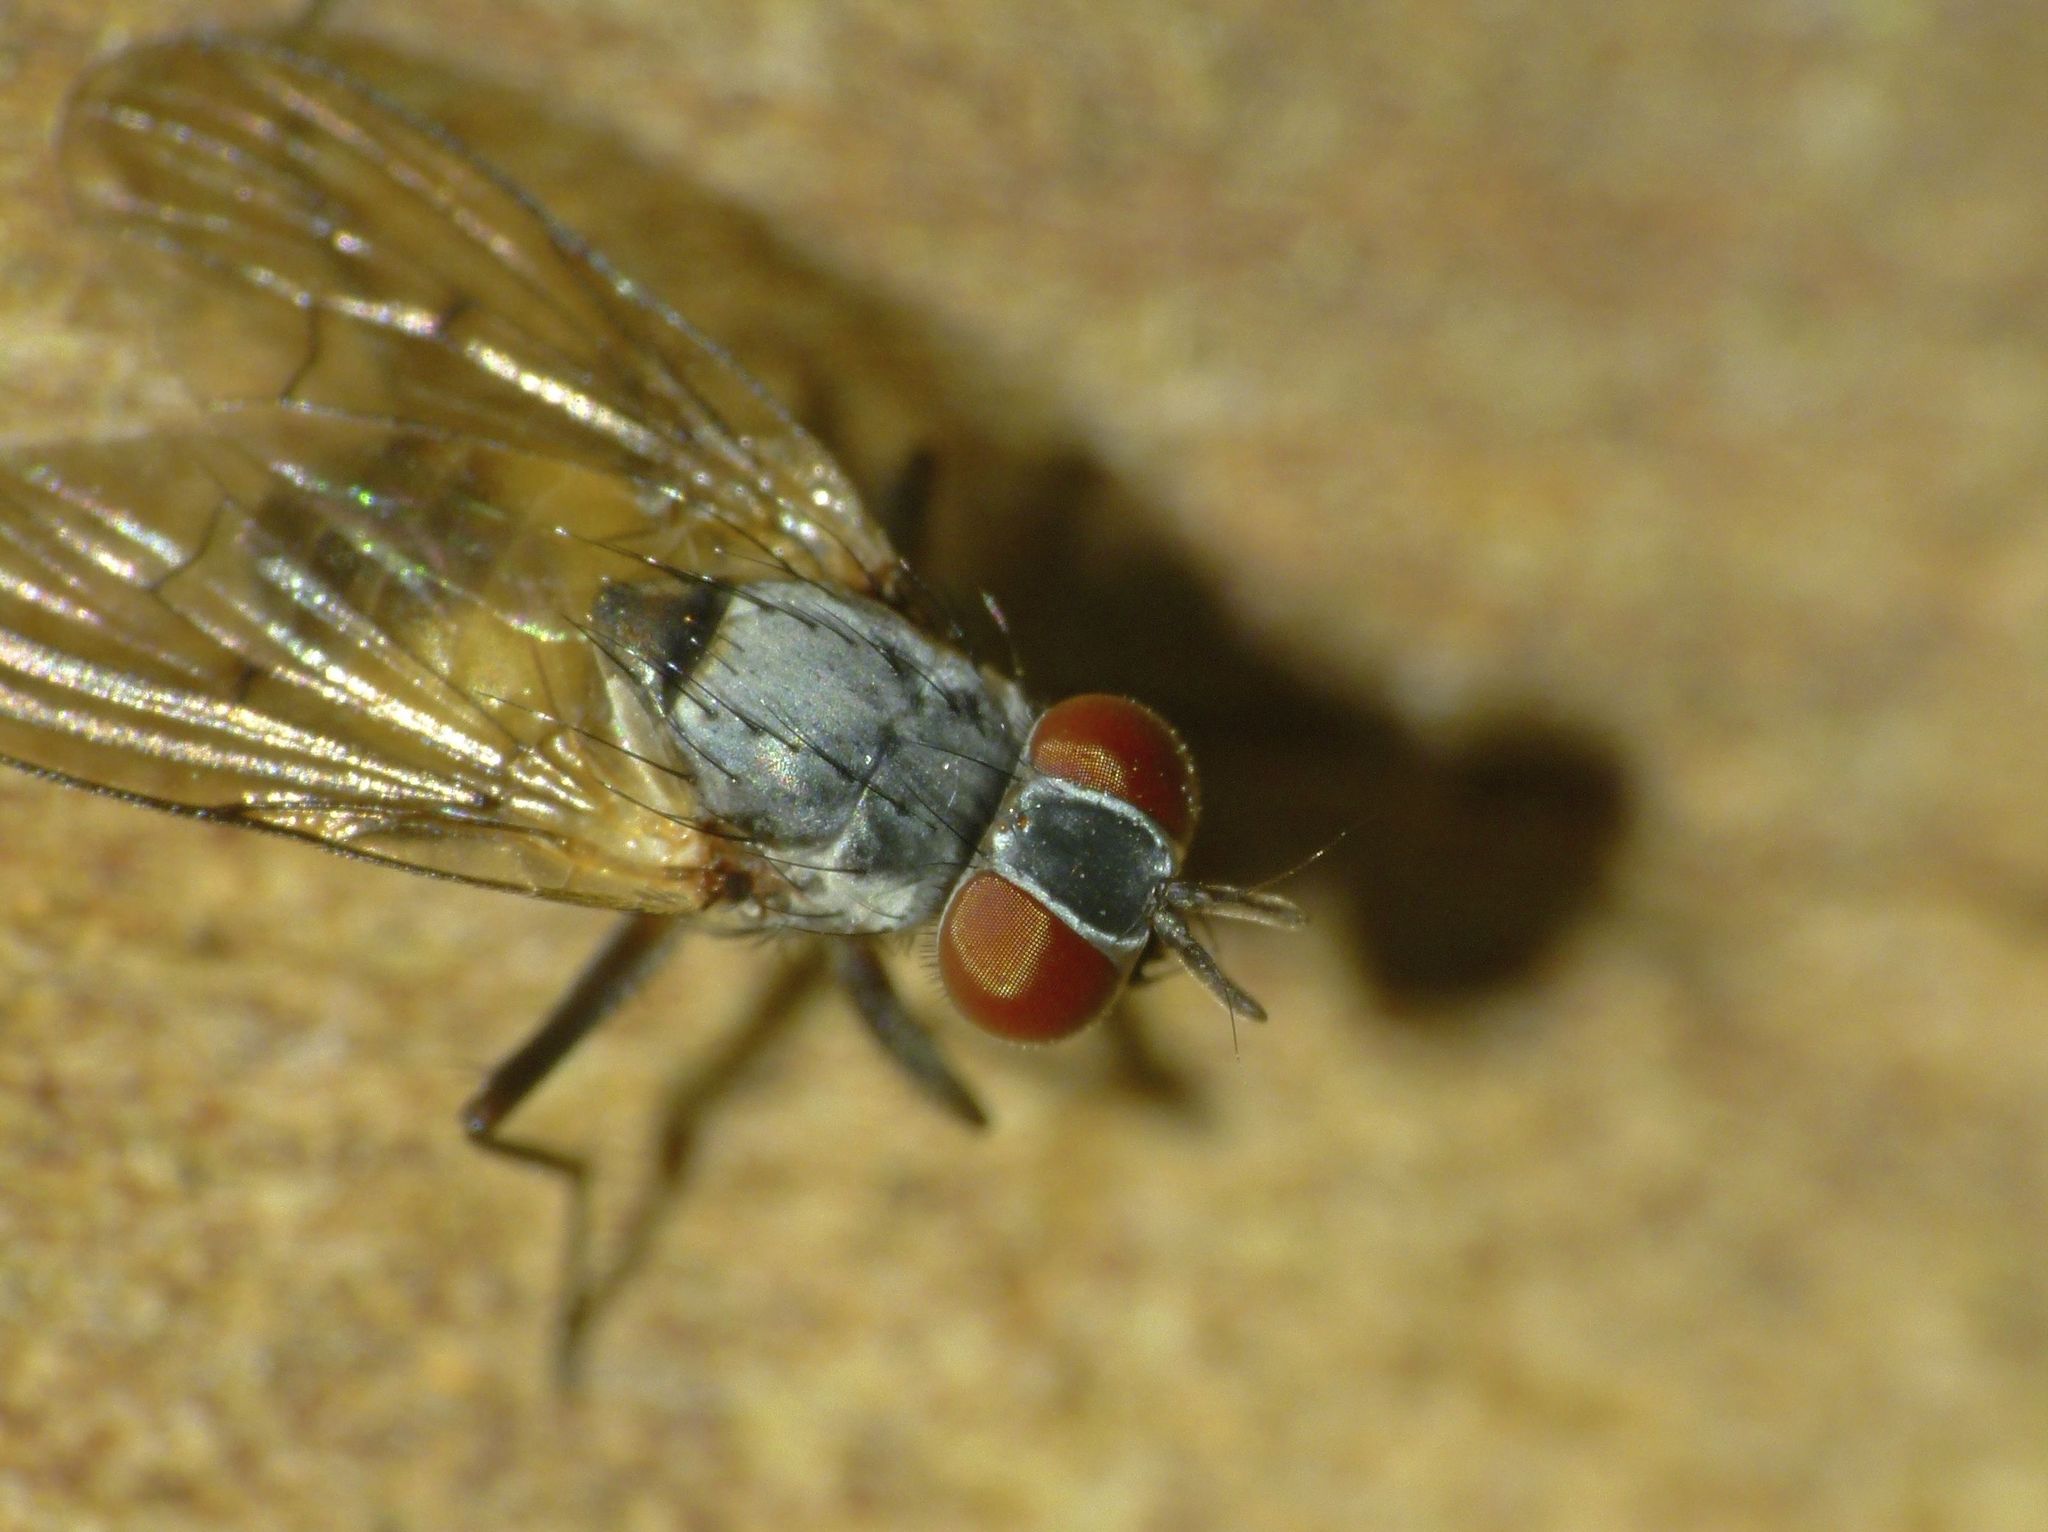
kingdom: Animalia
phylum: Arthropoda
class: Insecta
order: Diptera
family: Muscidae
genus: Spilogona
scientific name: Spilogona flaviventris
